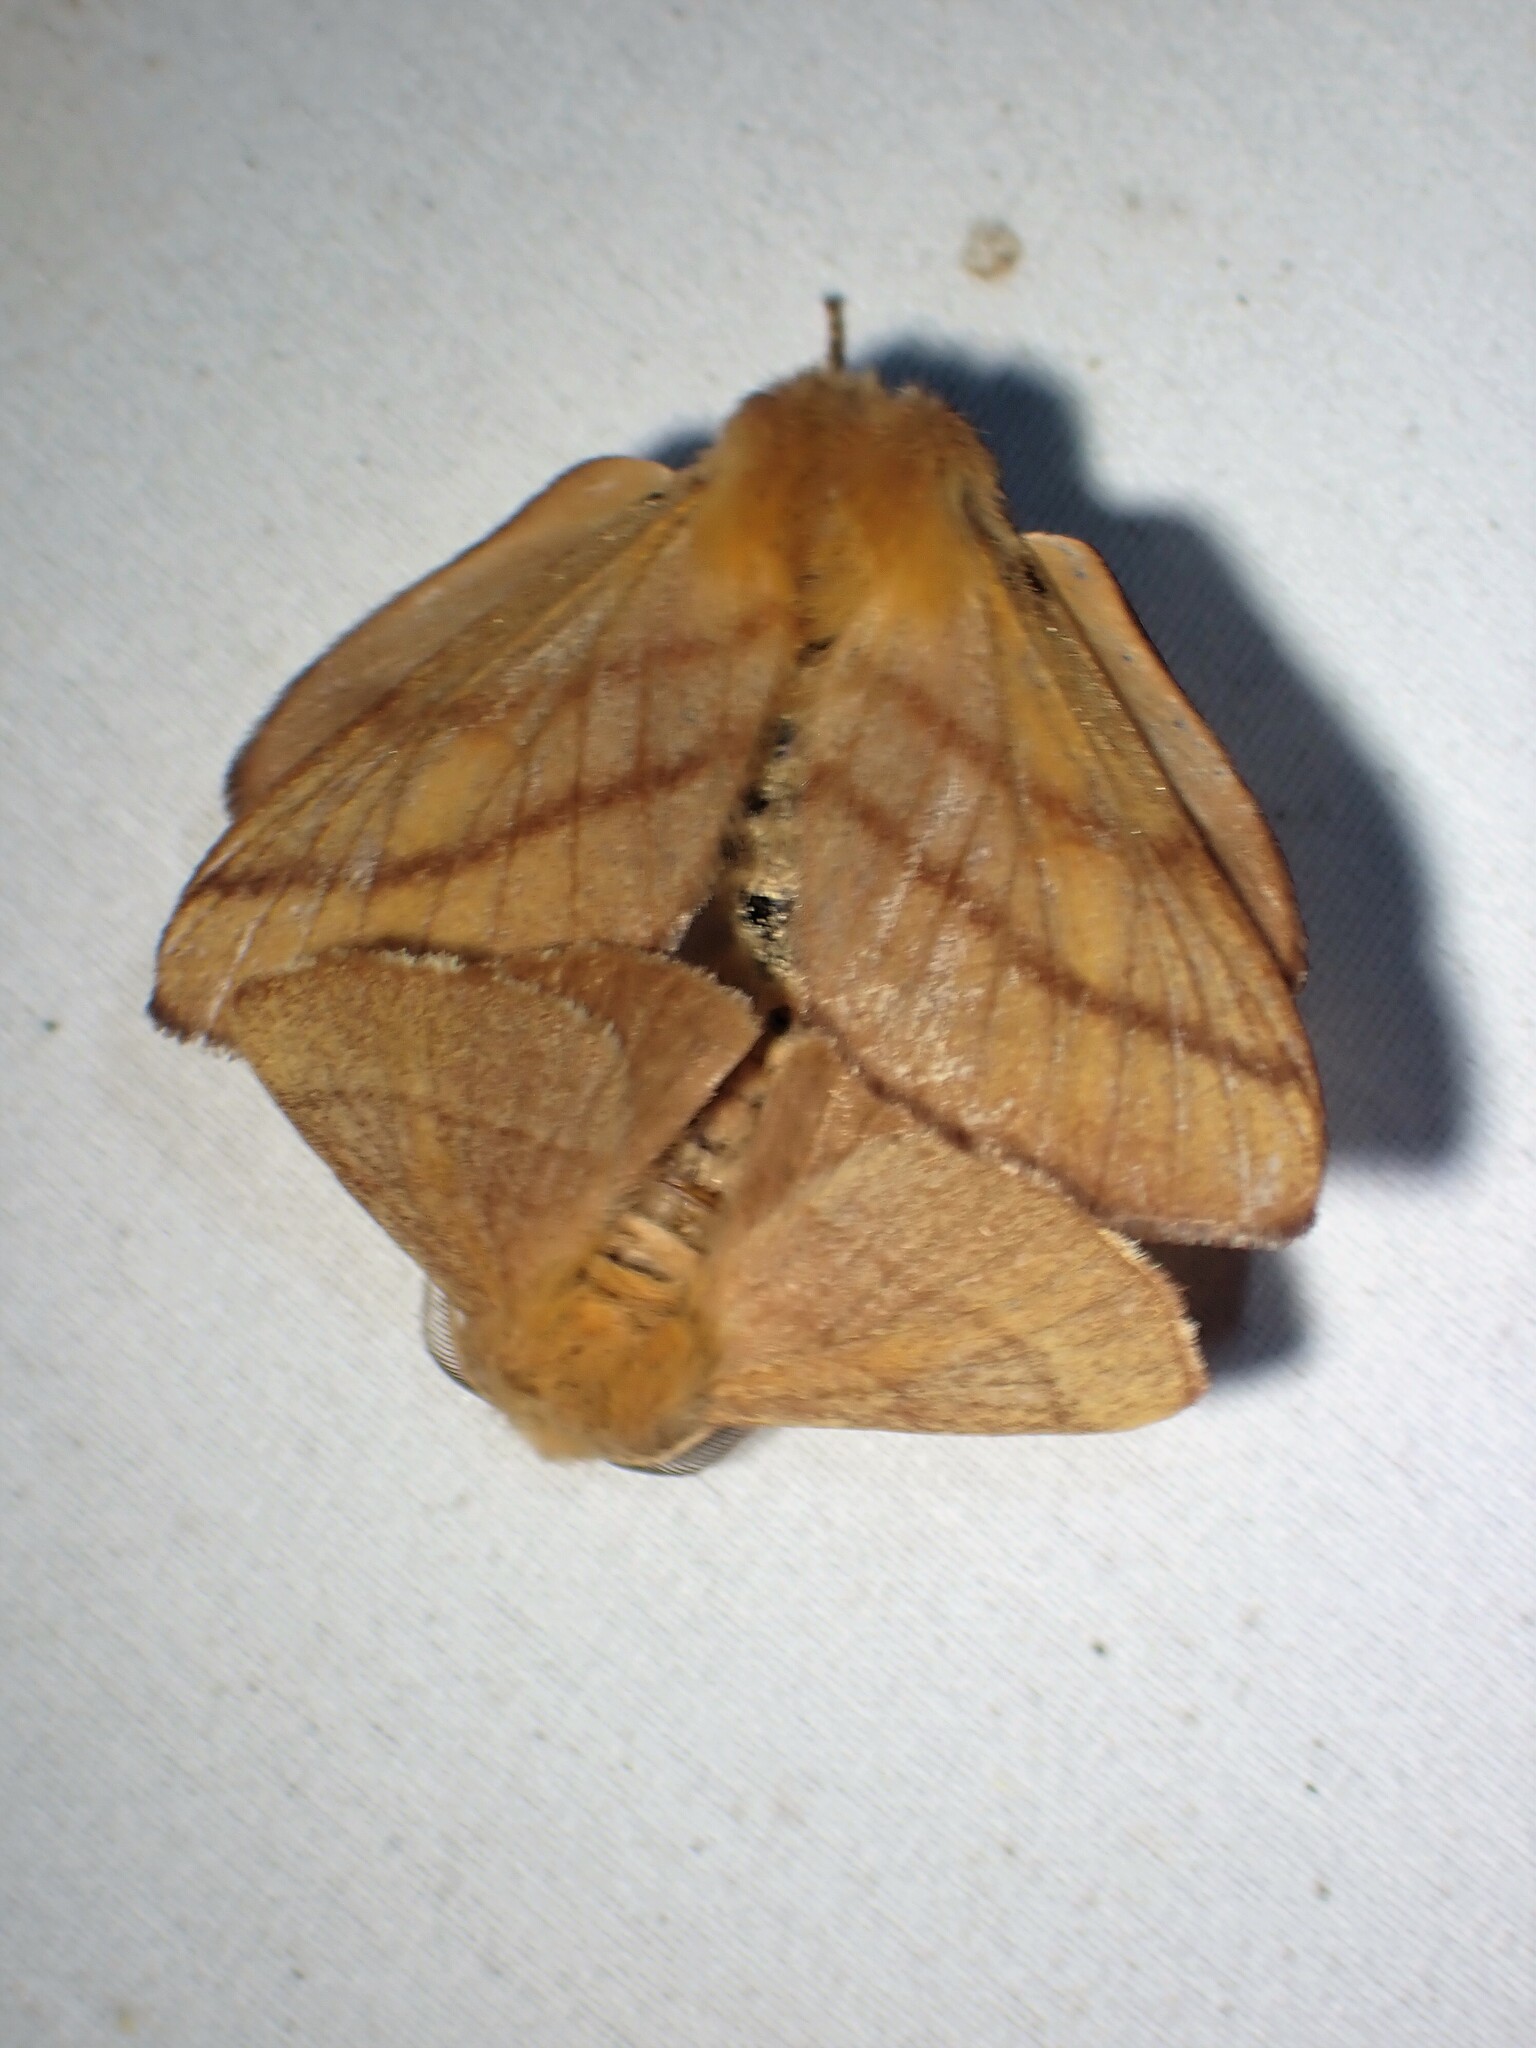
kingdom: Animalia
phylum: Arthropoda
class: Insecta
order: Lepidoptera
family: Lasiocampidae
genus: Malacosoma
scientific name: Malacosoma disstria
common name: Forest tent caterpillar
